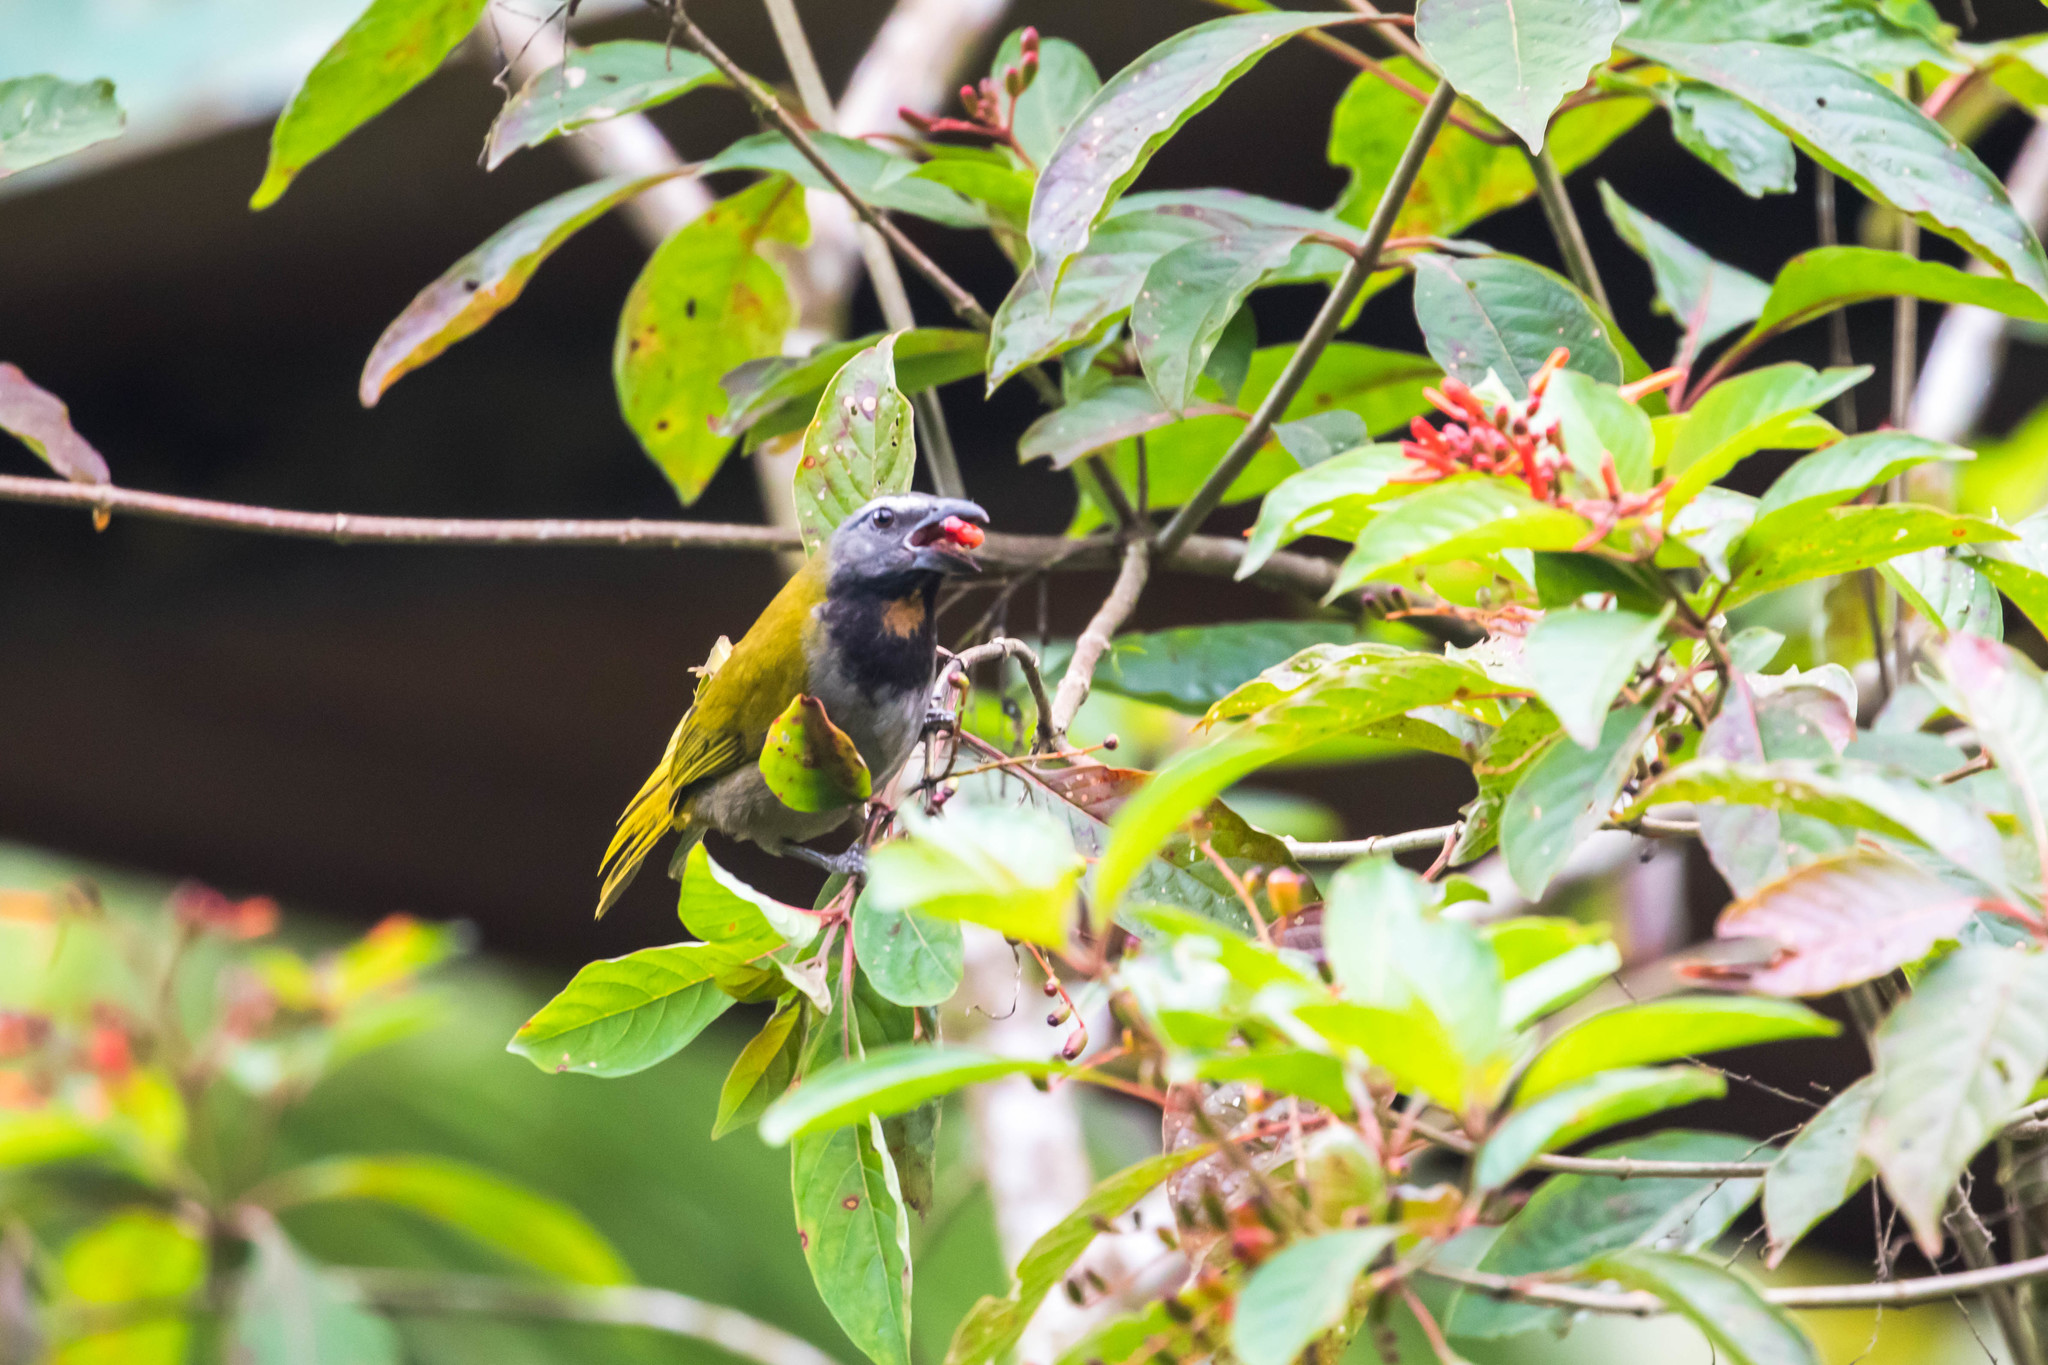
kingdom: Animalia
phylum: Chordata
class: Aves
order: Passeriformes
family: Thraupidae
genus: Saltator
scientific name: Saltator maximus
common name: Buff-throated saltator
